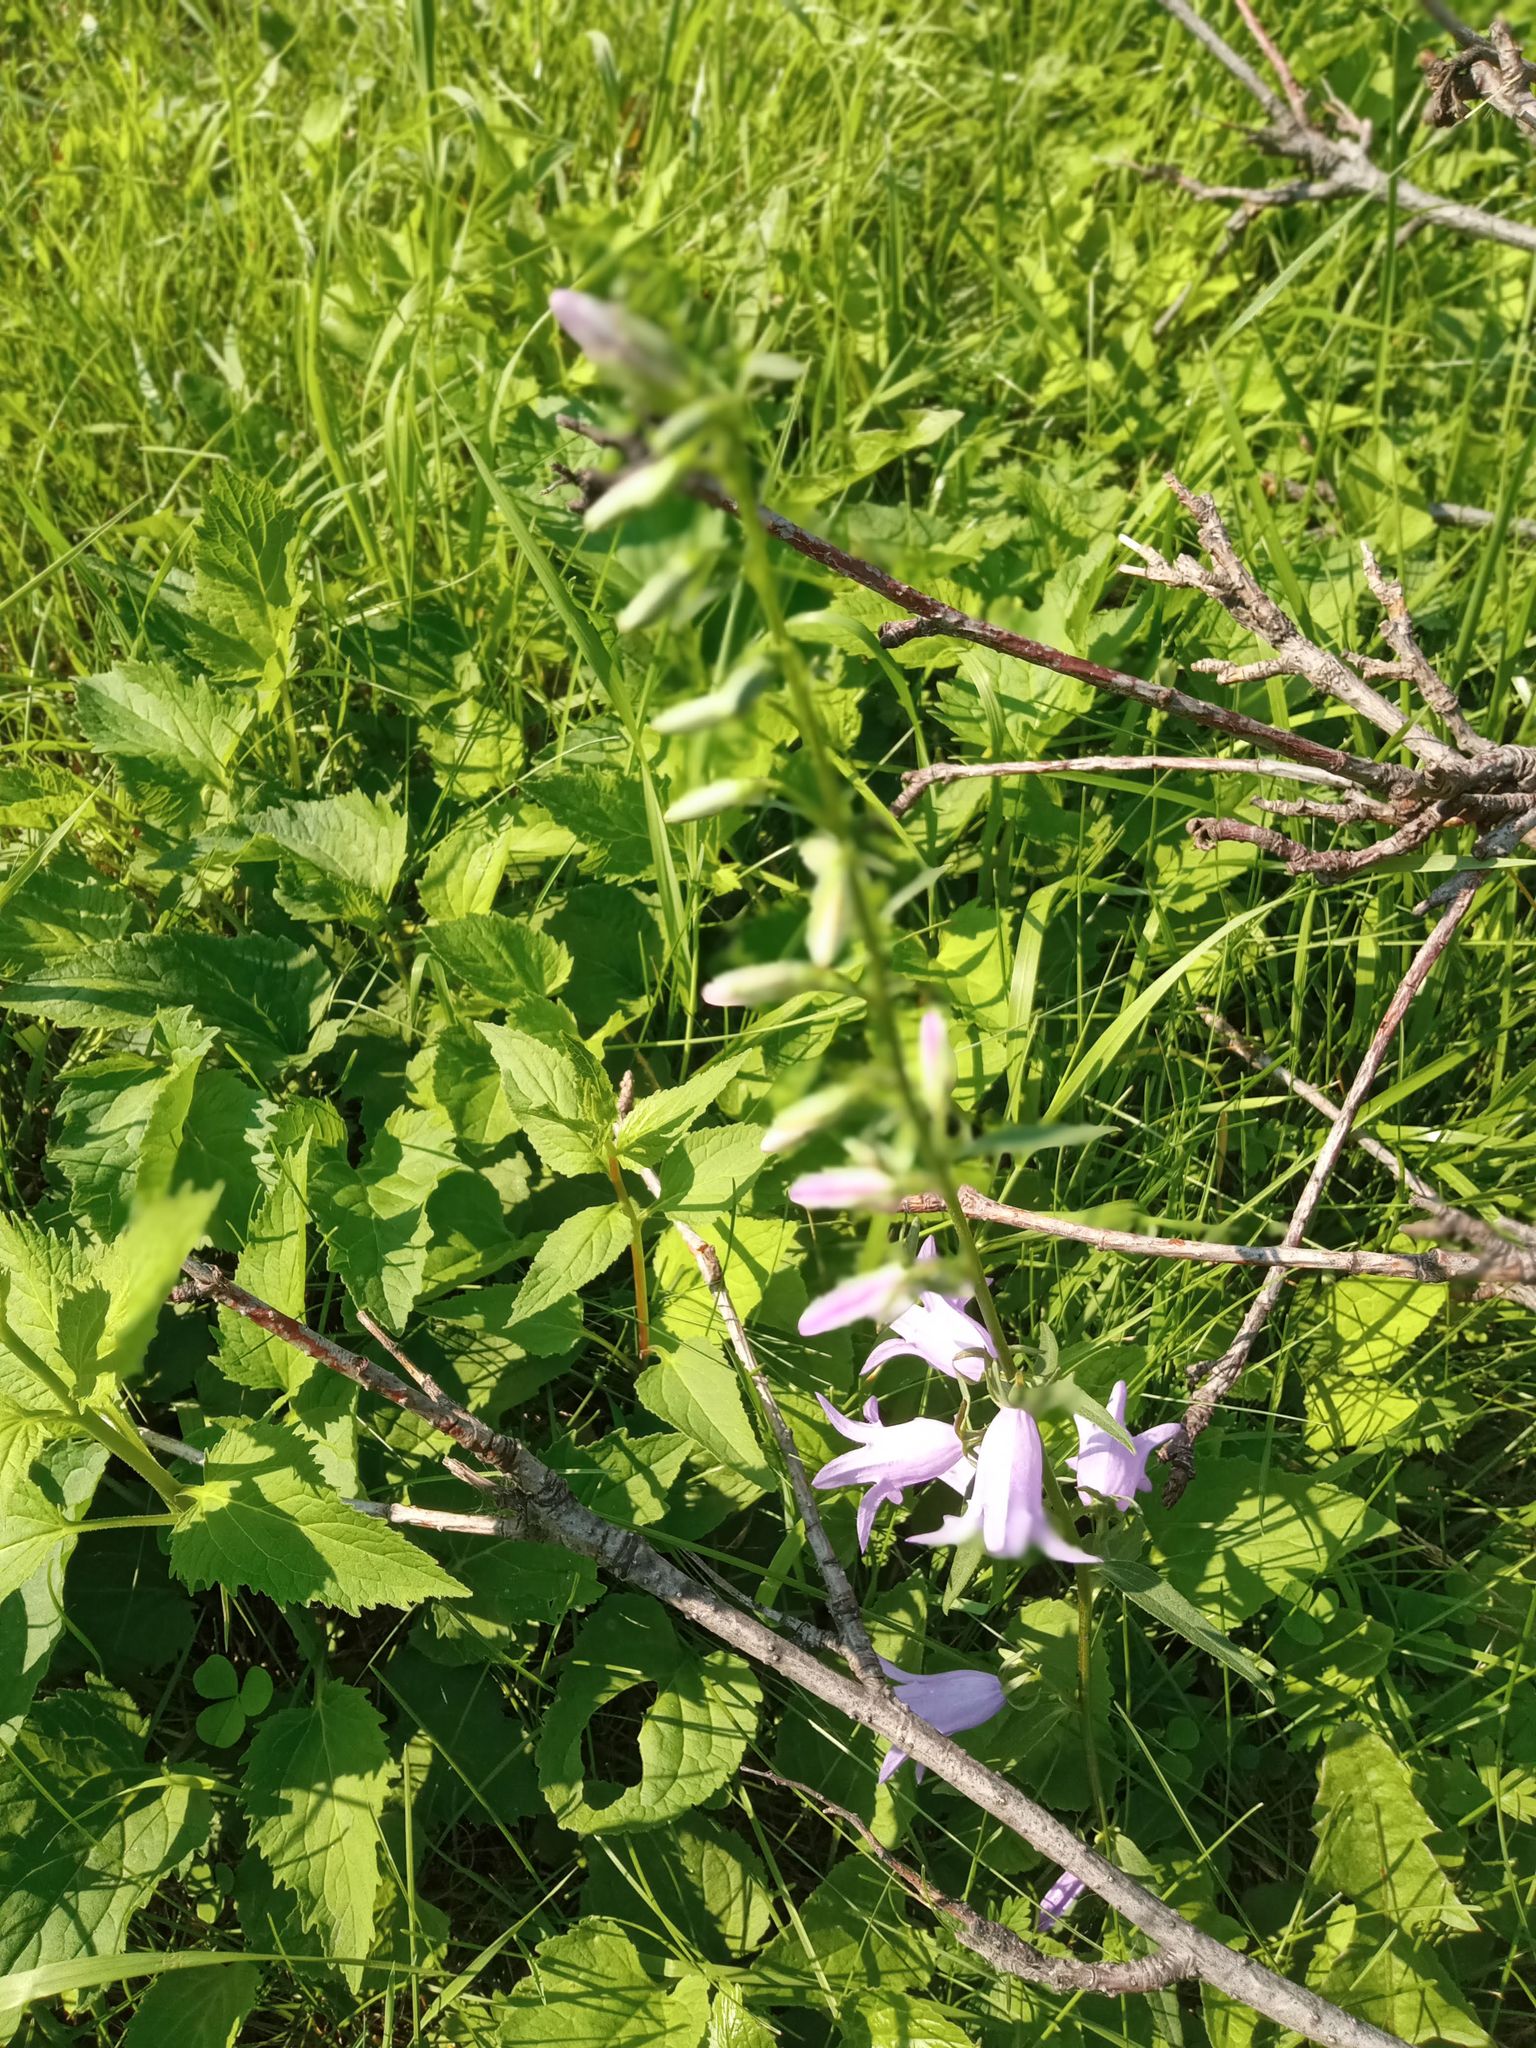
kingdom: Plantae
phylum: Tracheophyta
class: Magnoliopsida
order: Asterales
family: Campanulaceae
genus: Campanula
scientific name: Campanula rapunculoides
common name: Creeping bellflower
